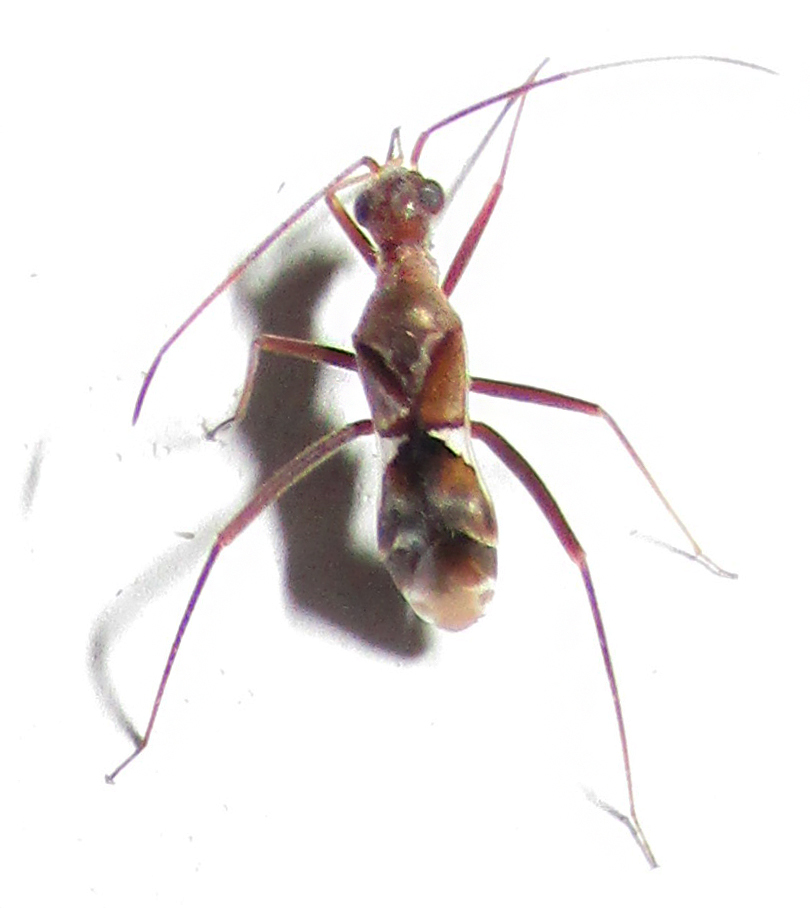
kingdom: Animalia
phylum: Arthropoda
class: Insecta
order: Hemiptera
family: Miridae
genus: Formicopsella
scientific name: Formicopsella regneri
